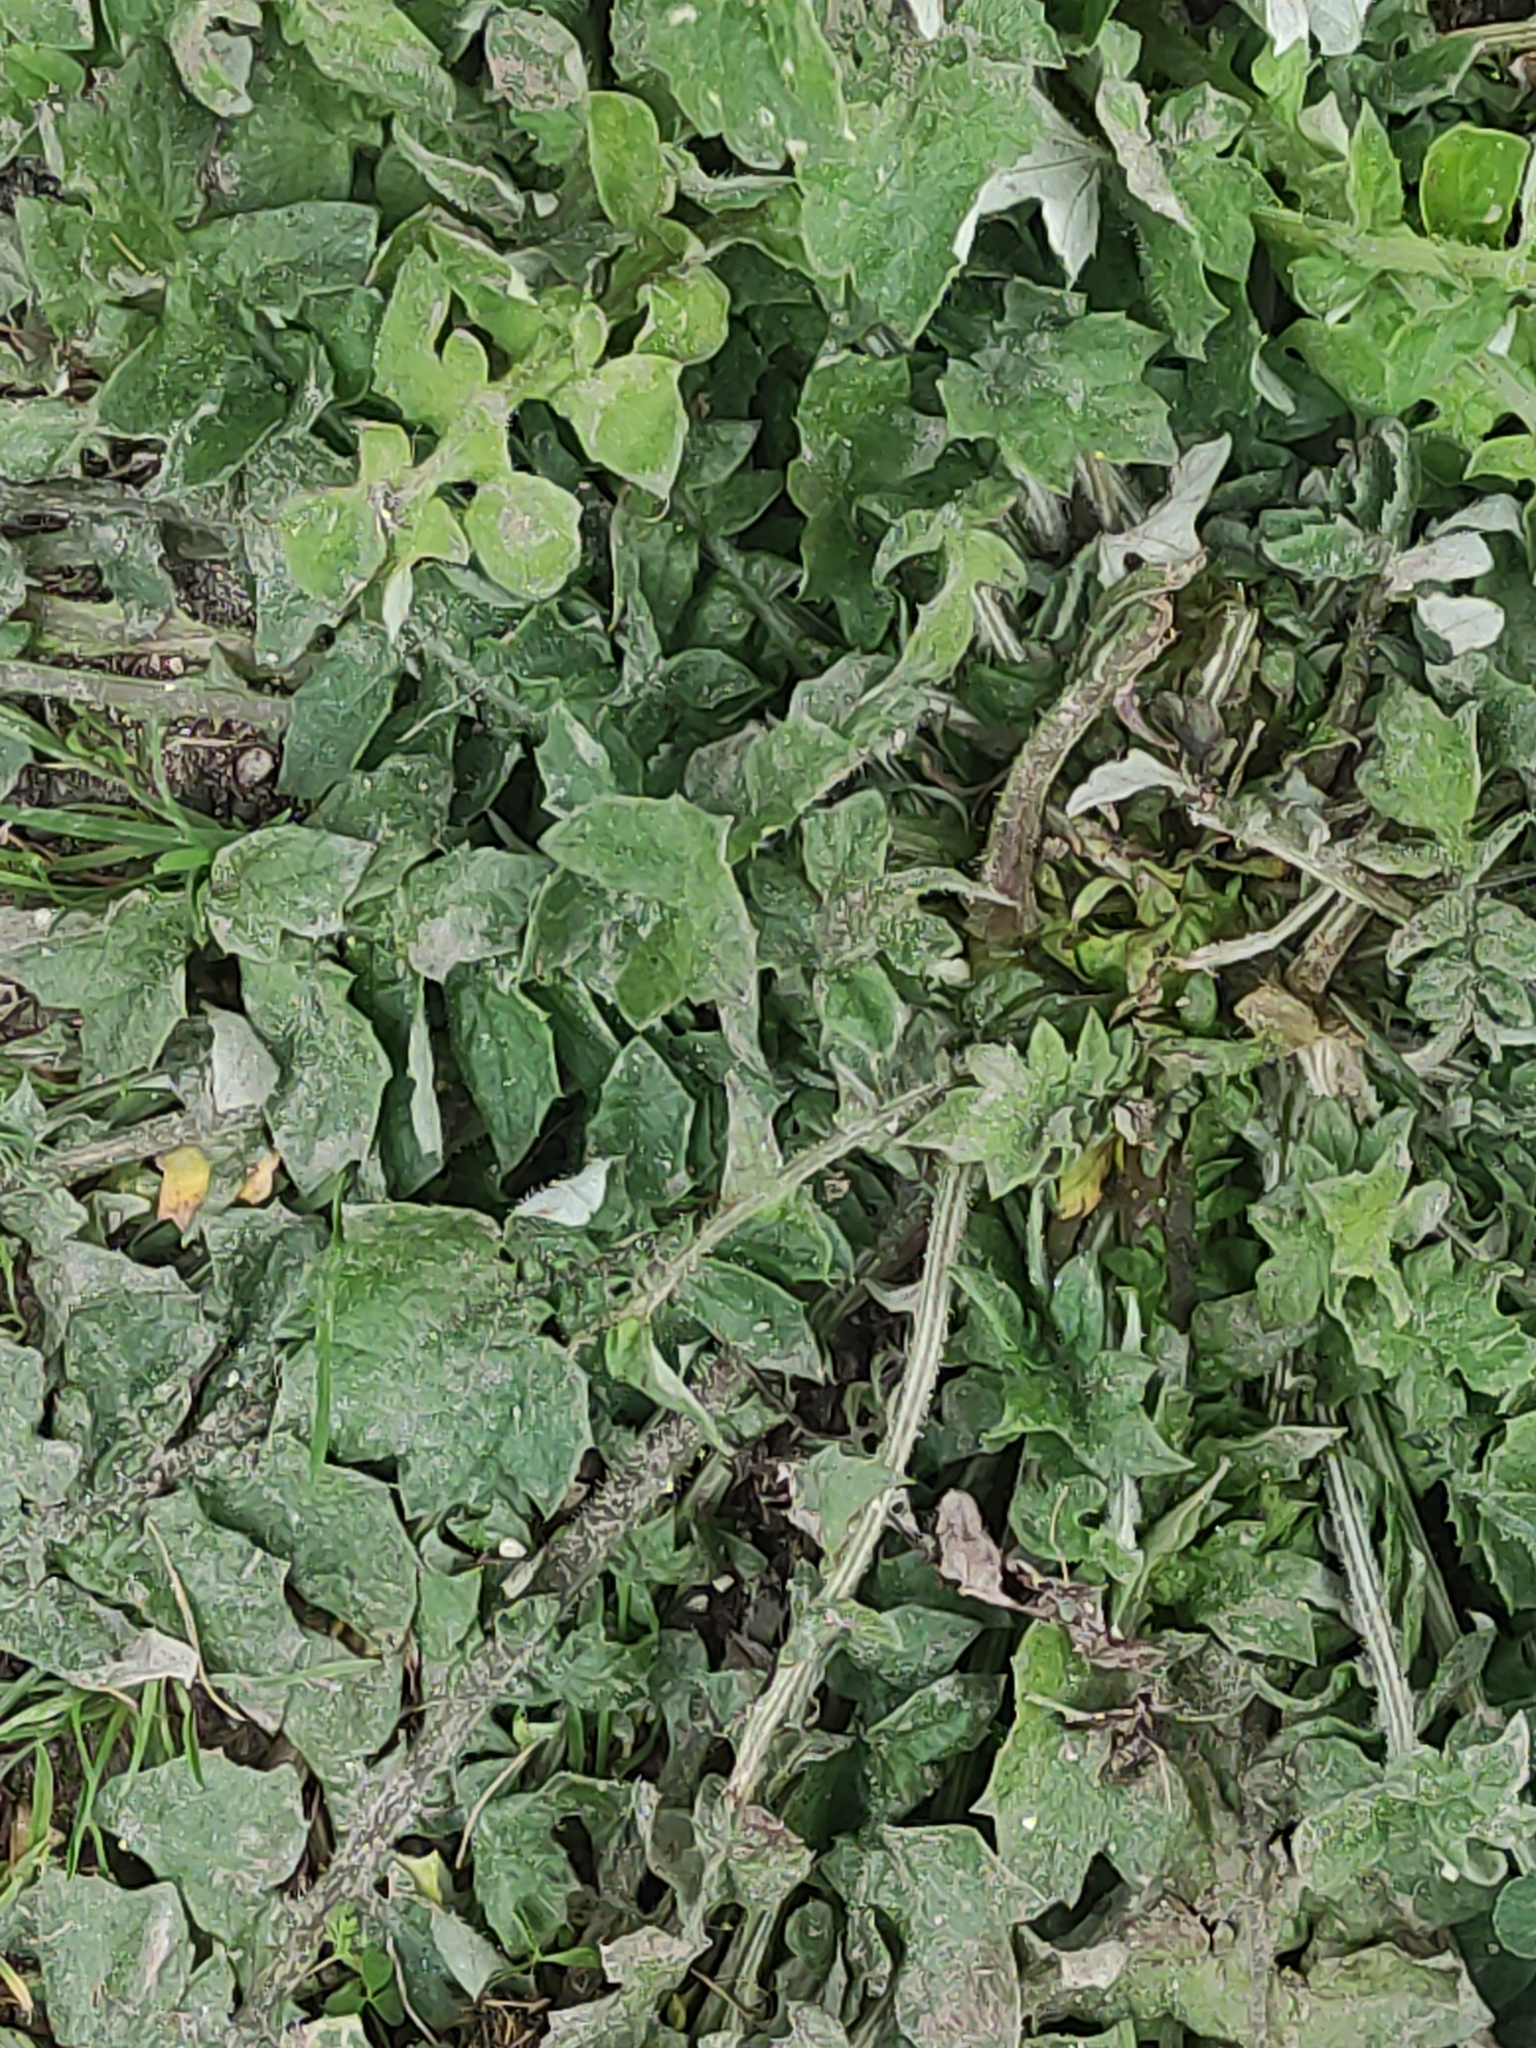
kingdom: Plantae
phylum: Tracheophyta
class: Magnoliopsida
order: Asterales
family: Asteraceae
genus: Arctotheca
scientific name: Arctotheca calendula
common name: Capeweed
